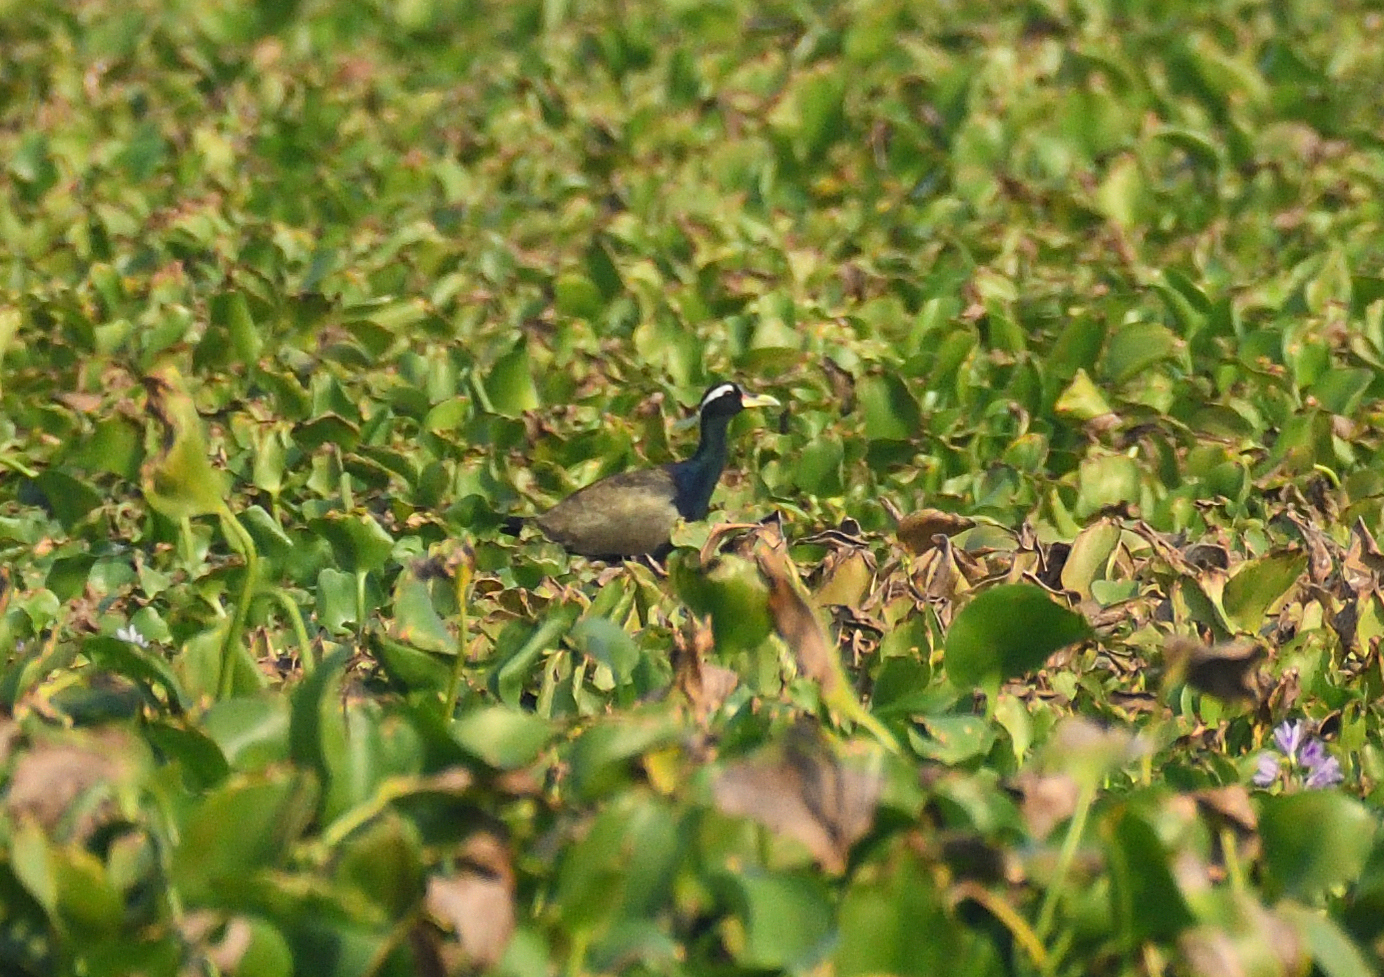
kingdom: Animalia
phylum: Chordata
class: Aves
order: Charadriiformes
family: Jacanidae
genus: Metopidius
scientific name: Metopidius indicus
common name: Bronze-winged jacana
